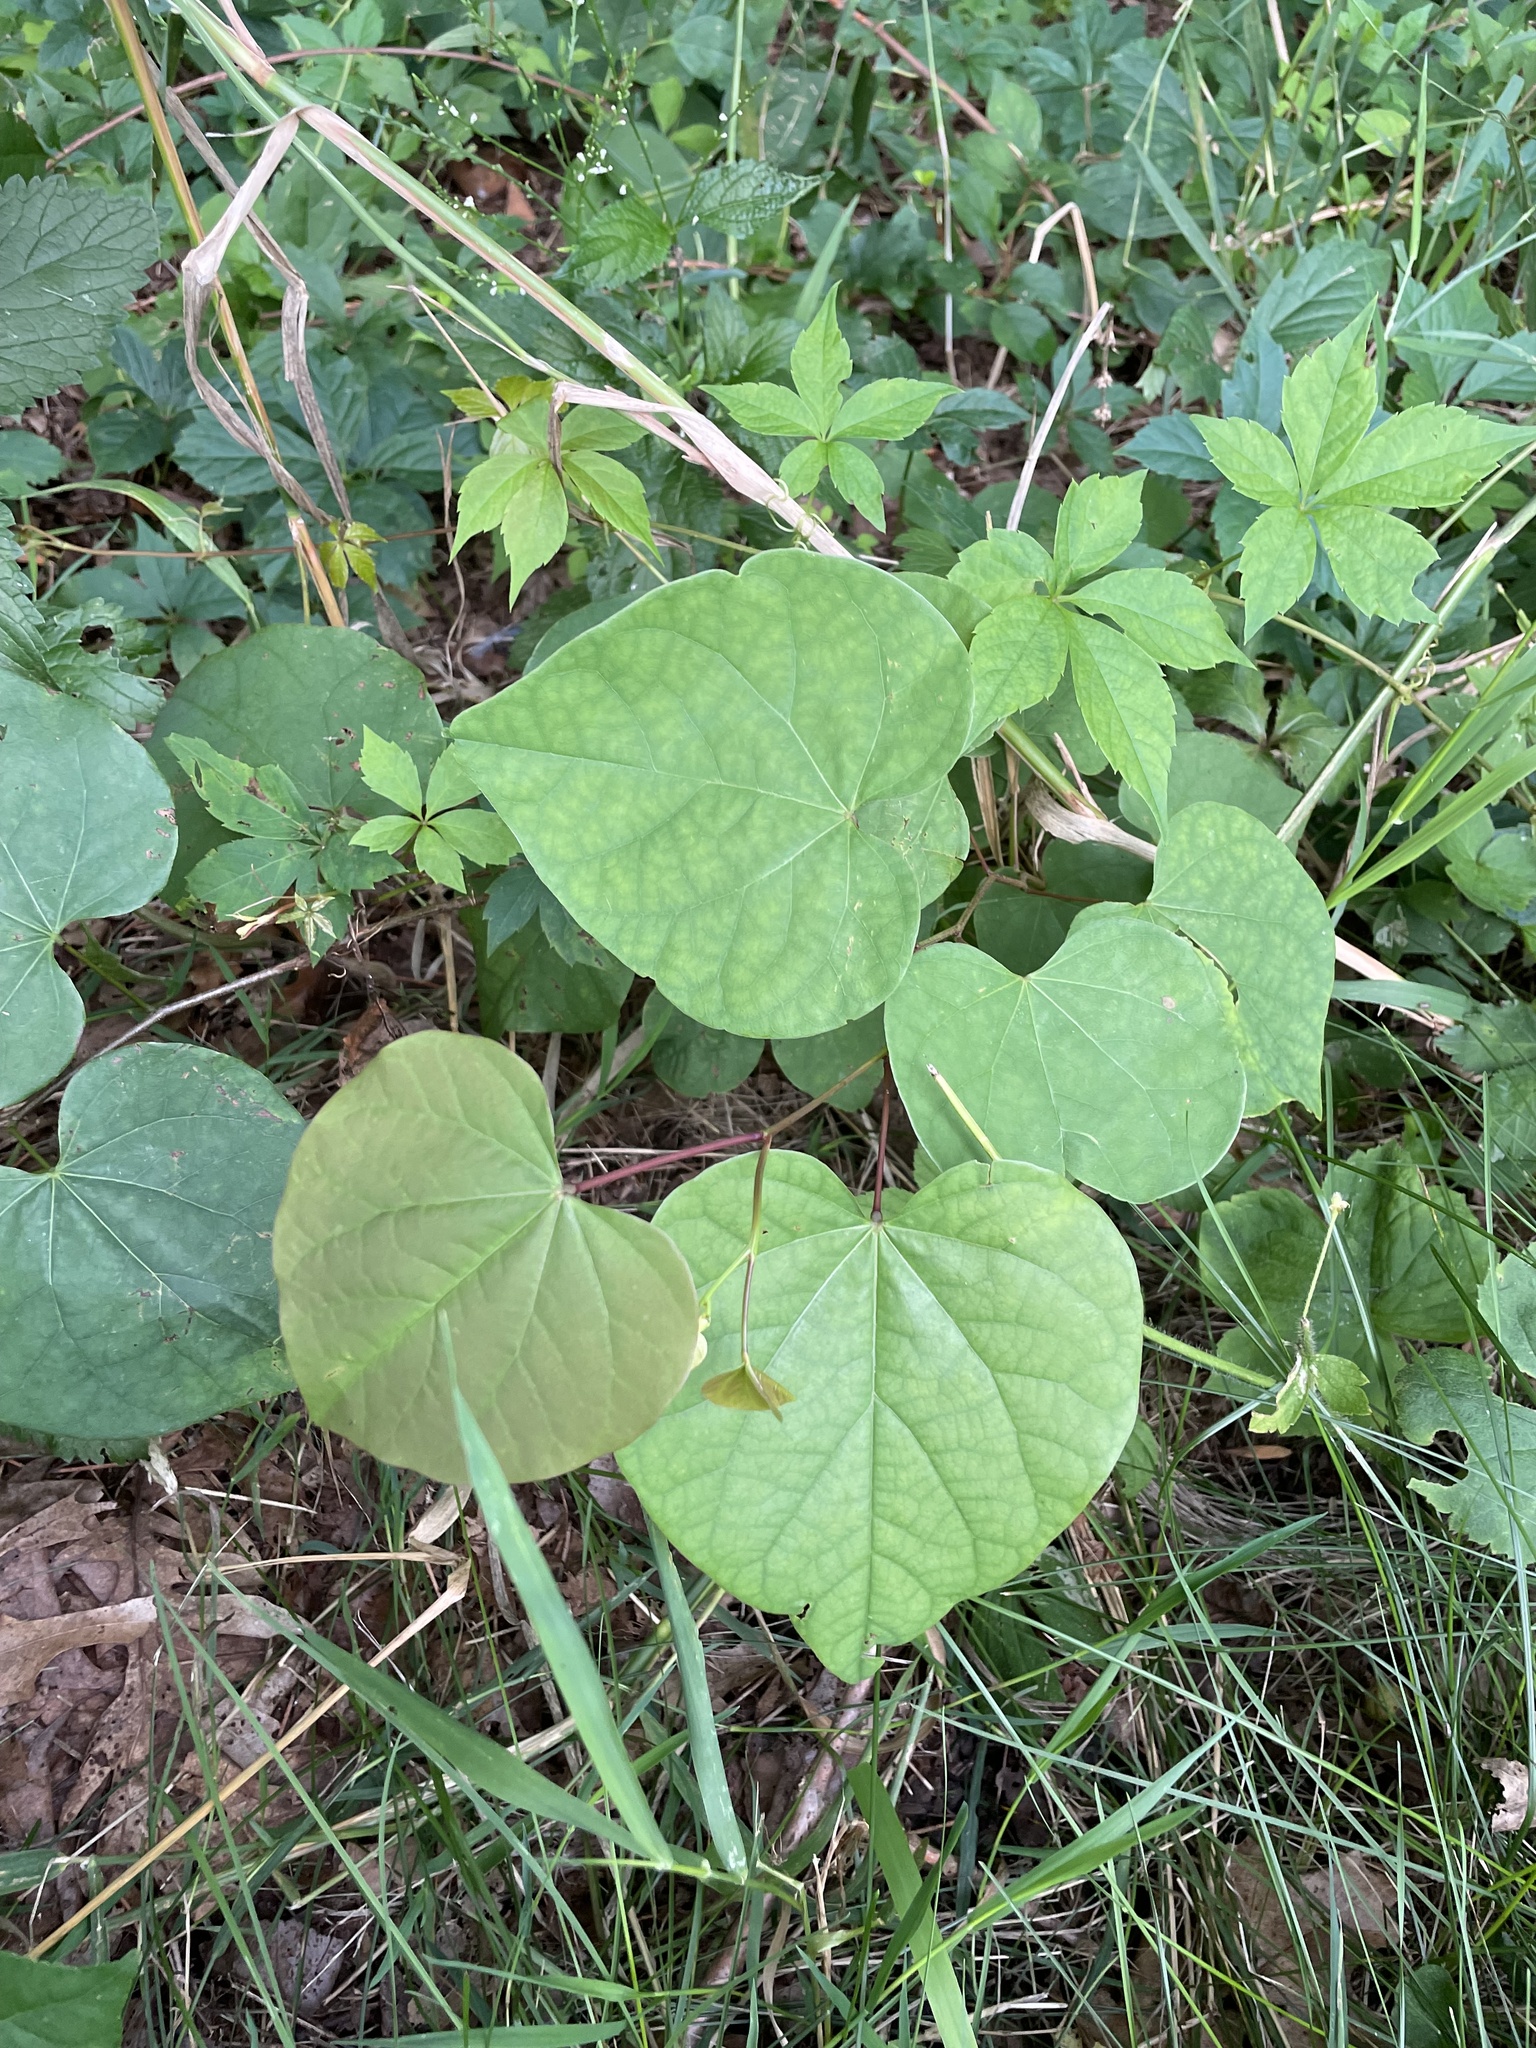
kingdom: Plantae
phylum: Tracheophyta
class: Magnoliopsida
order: Fabales
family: Fabaceae
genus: Cercis
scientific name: Cercis canadensis
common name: Eastern redbud
